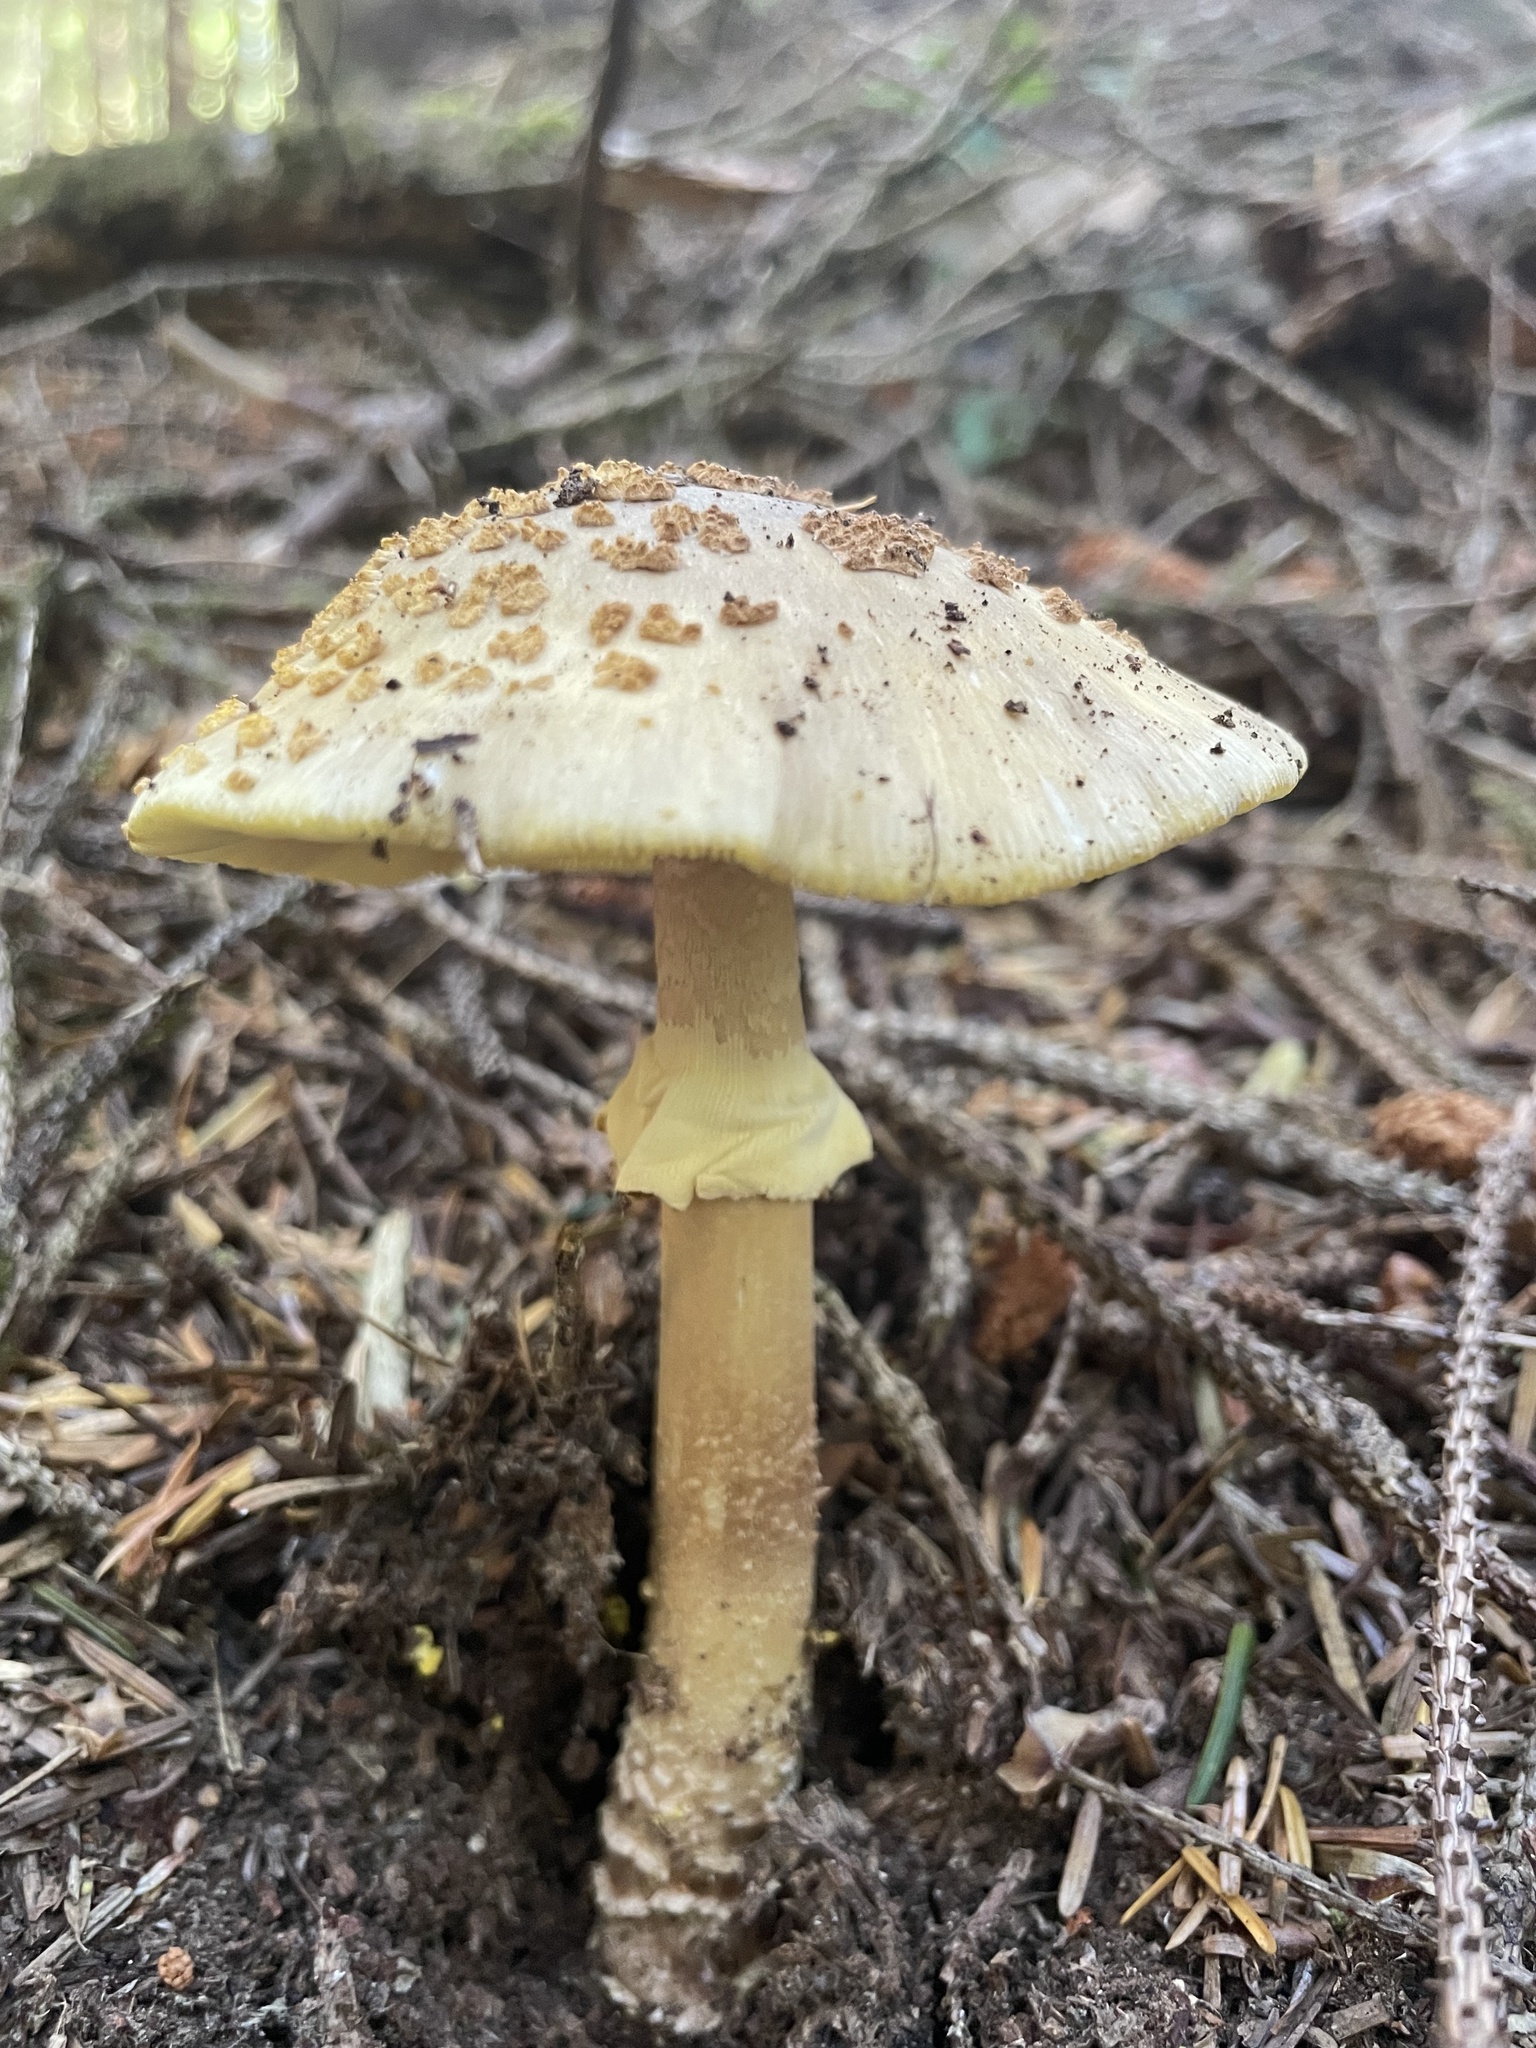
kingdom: Fungi
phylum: Basidiomycota
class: Agaricomycetes
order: Agaricales
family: Amanitaceae
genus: Amanita
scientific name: Amanita augusta
